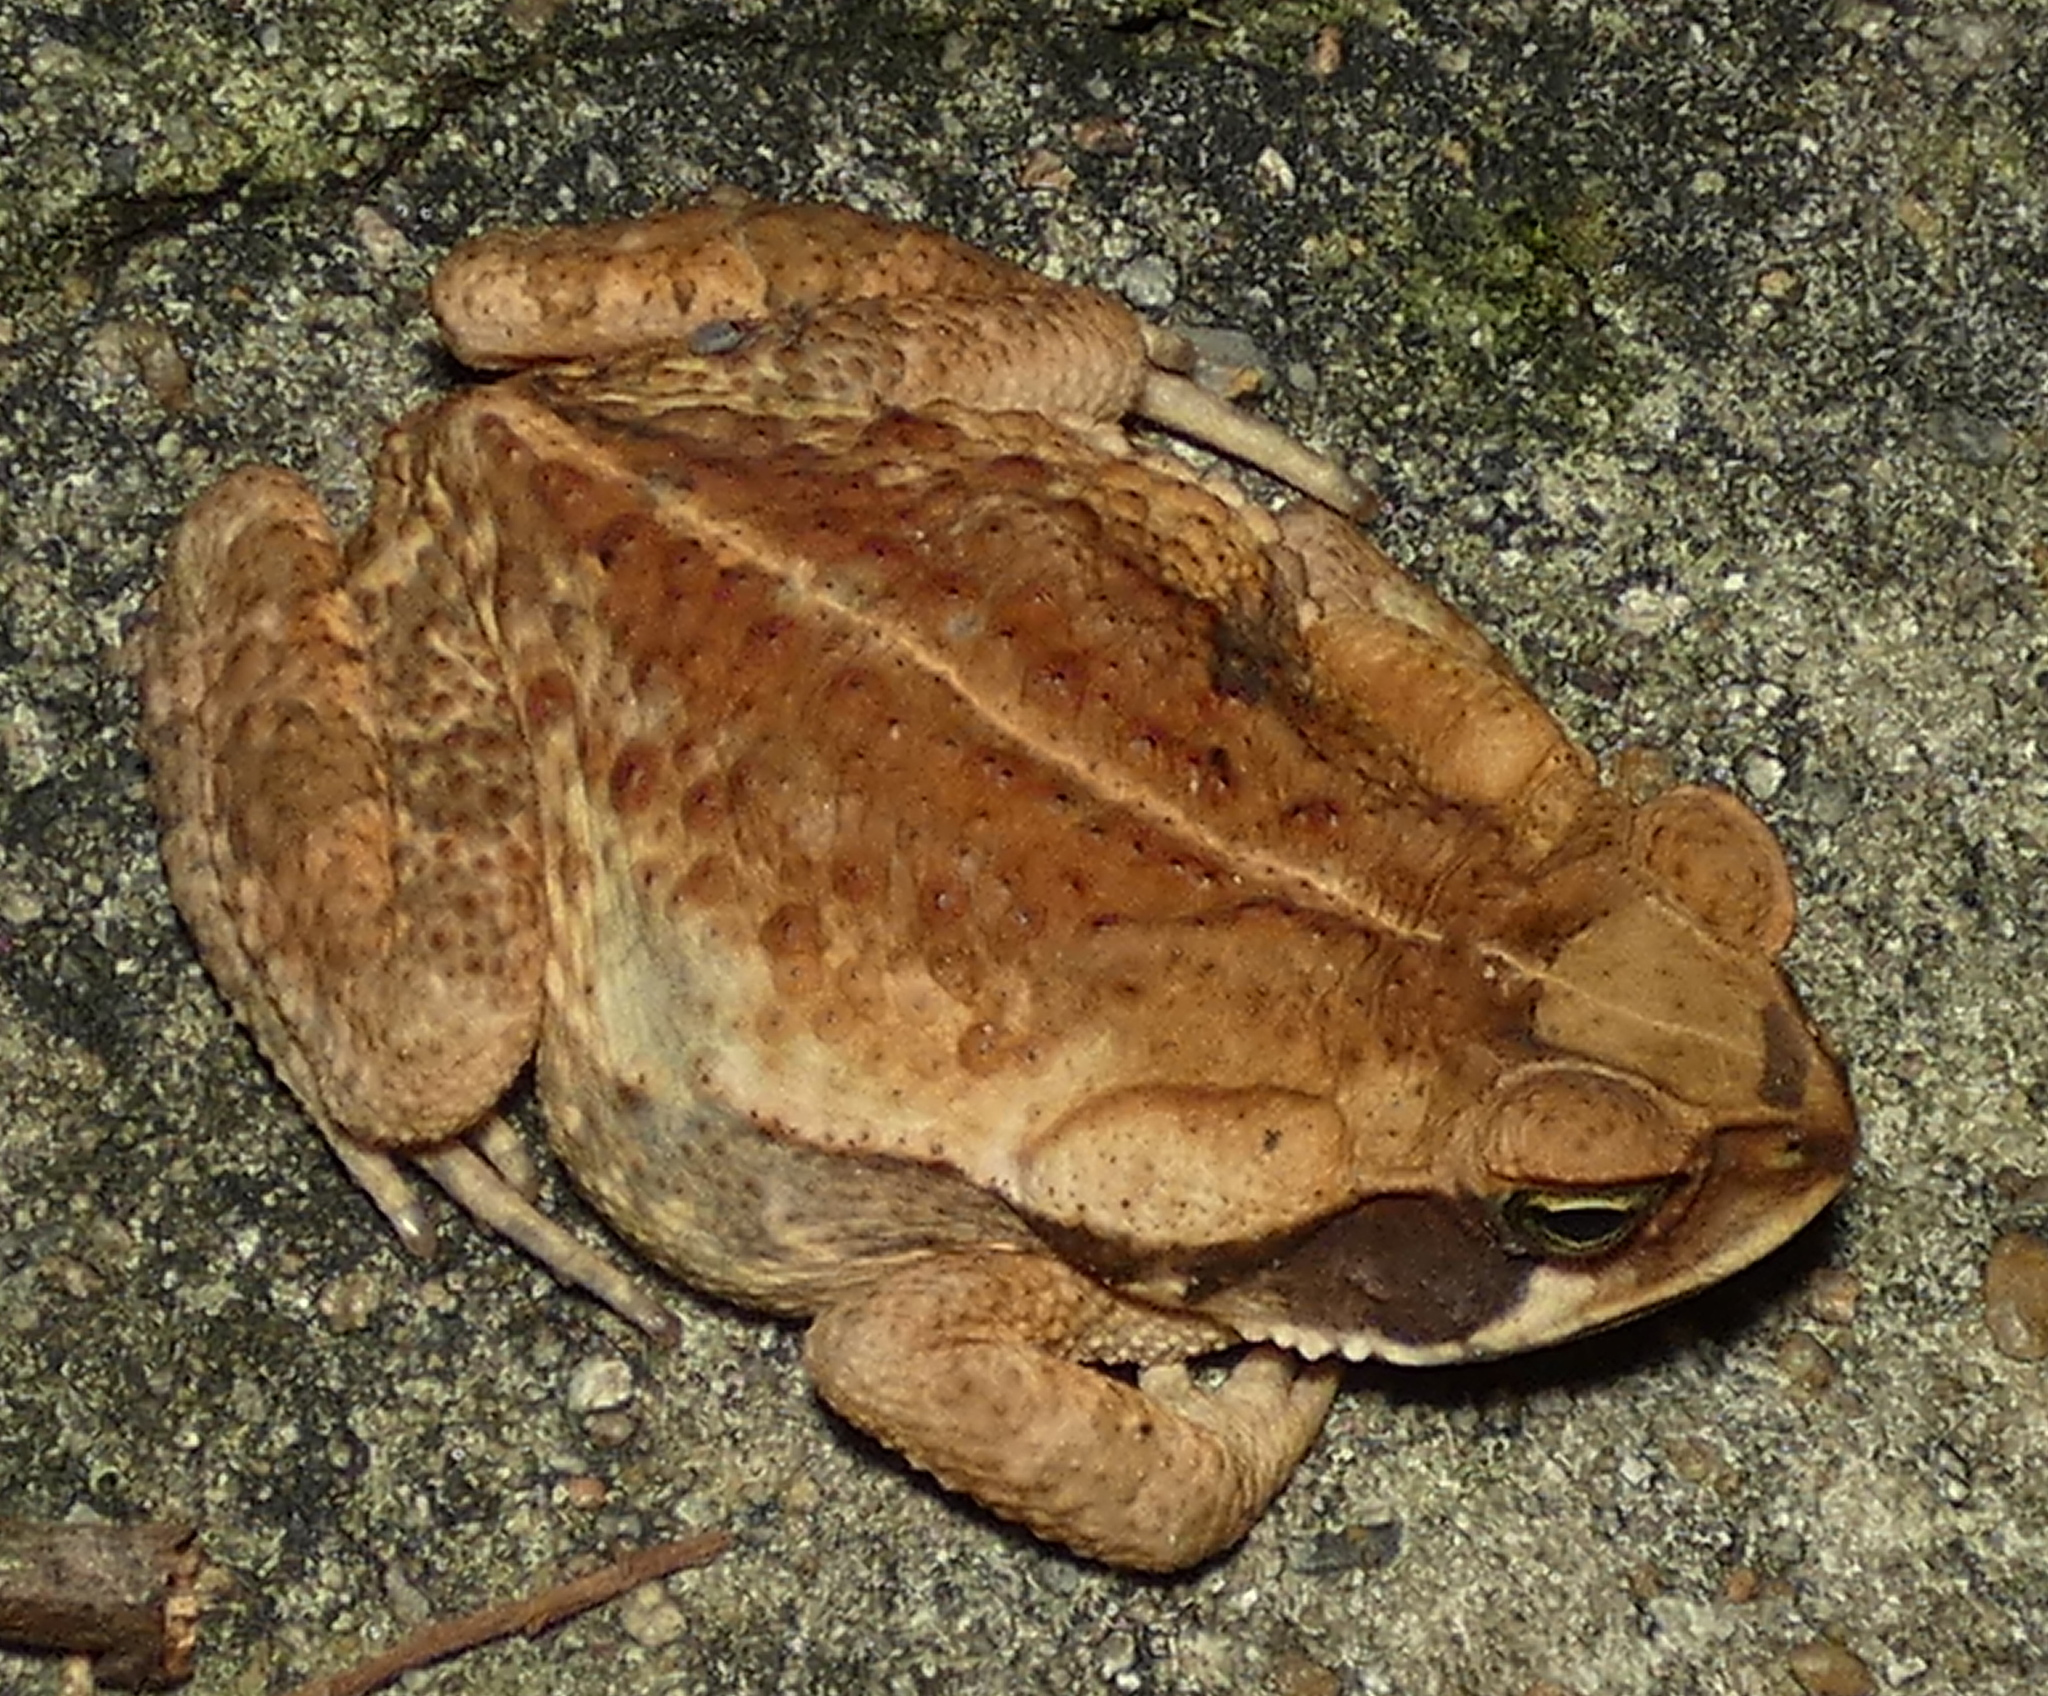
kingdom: Animalia
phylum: Chordata
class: Amphibia
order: Anura
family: Bufonidae
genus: Rhinella
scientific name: Rhinella crucifer
